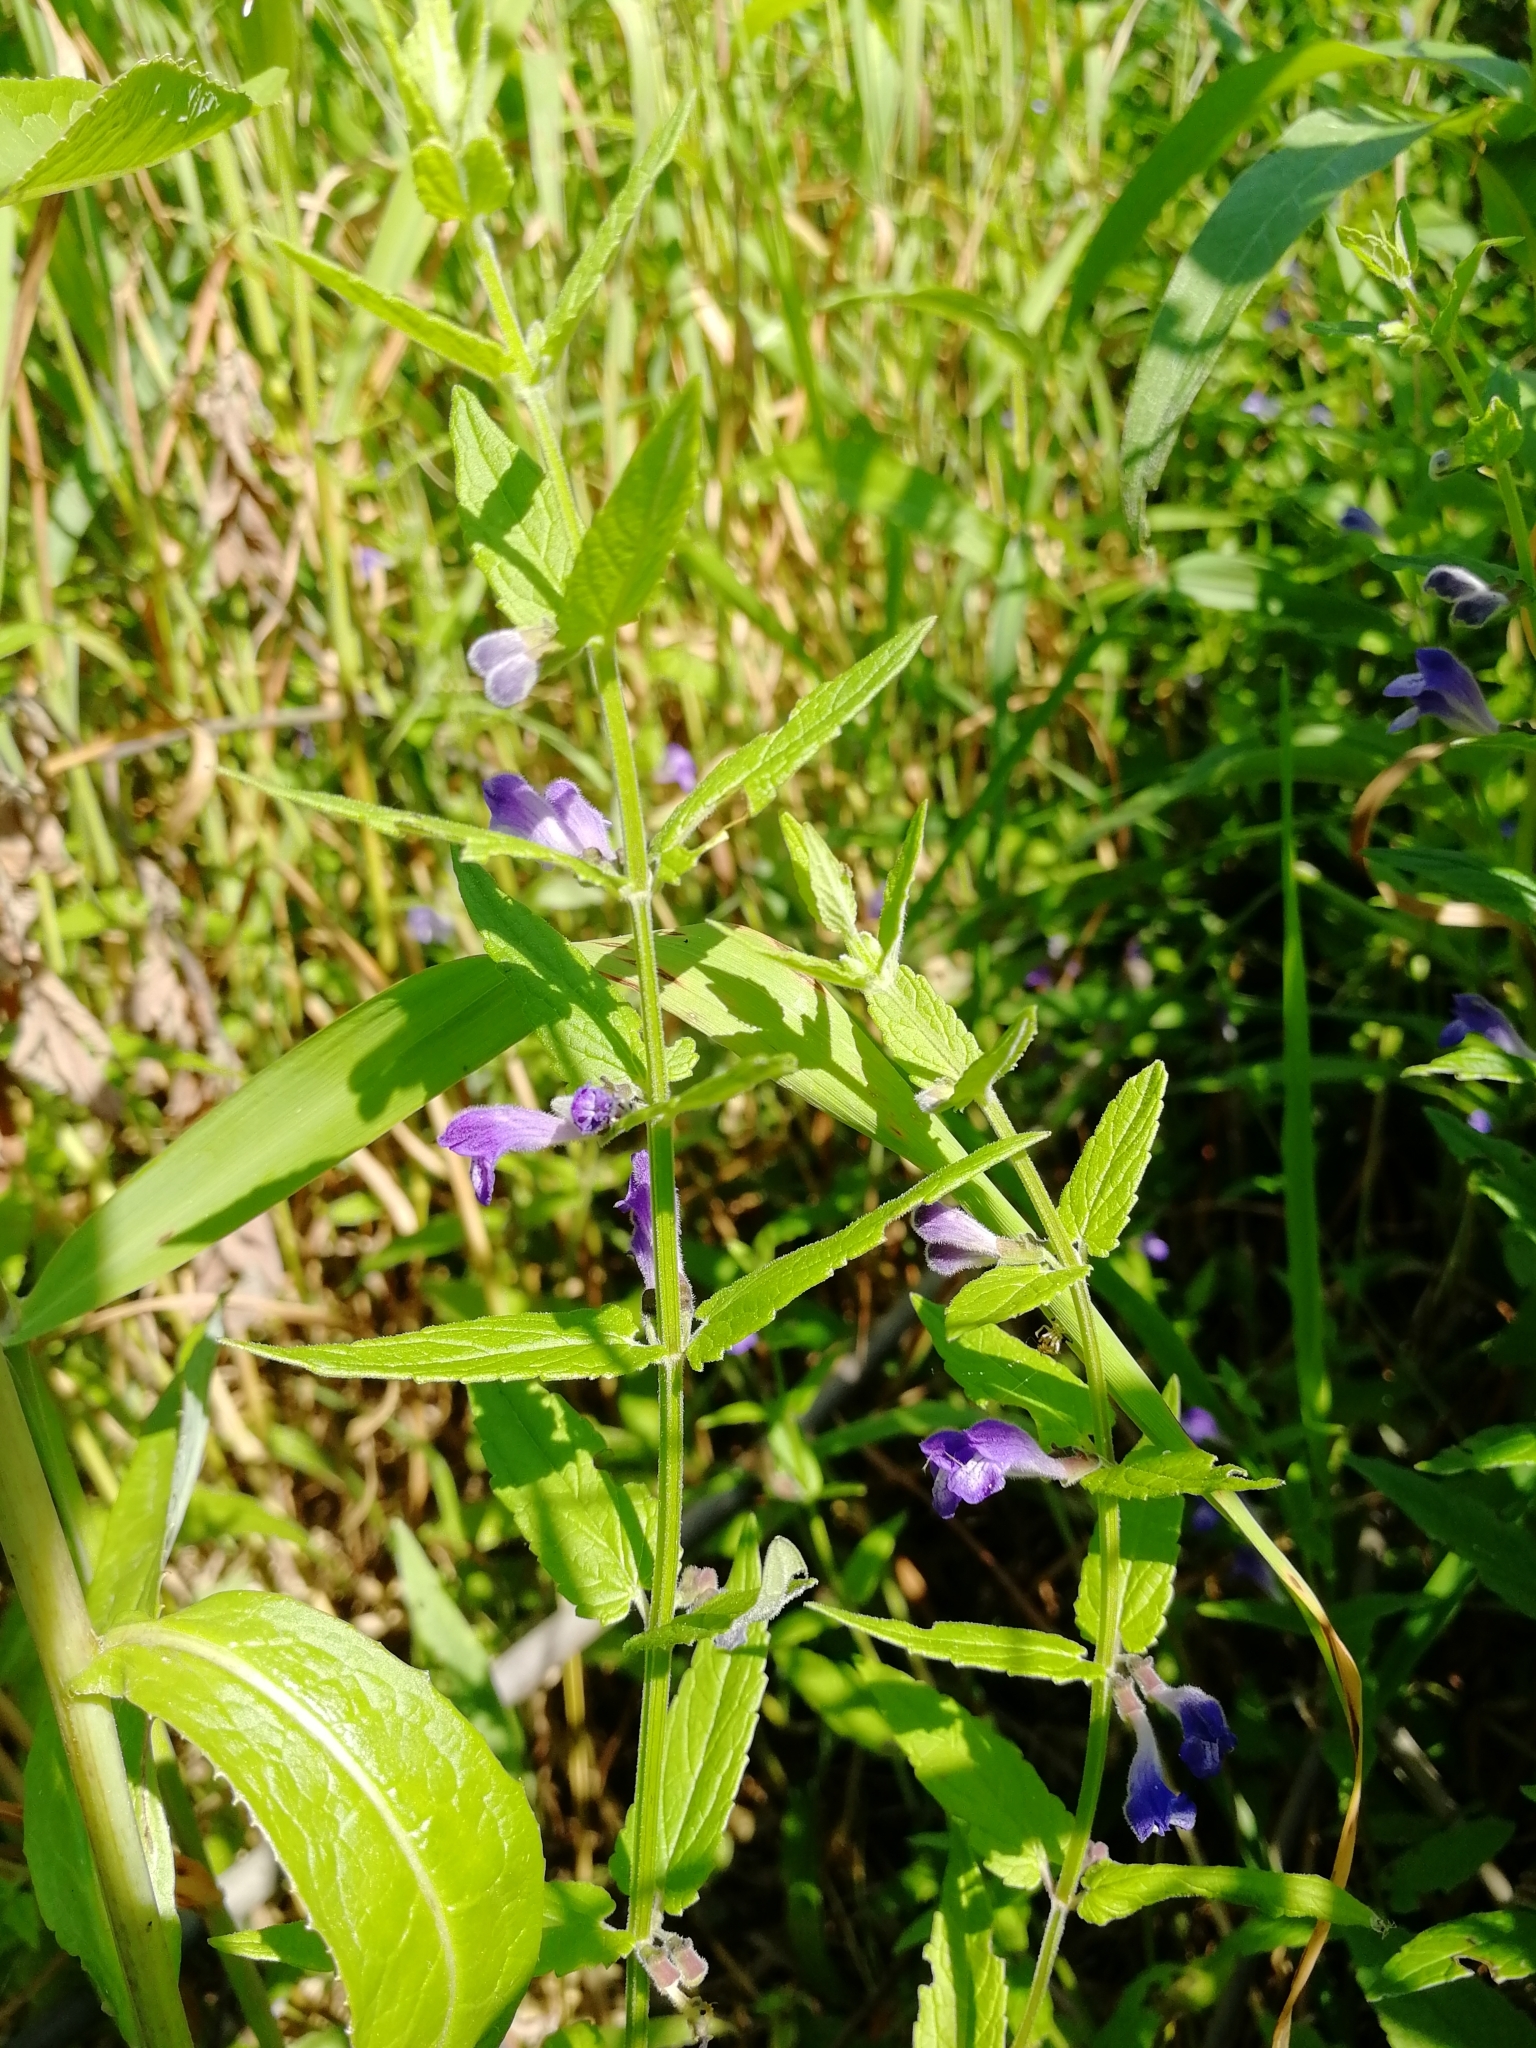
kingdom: Plantae
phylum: Tracheophyta
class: Magnoliopsida
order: Lamiales
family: Lamiaceae
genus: Scutellaria
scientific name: Scutellaria galericulata
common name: Skullcap
